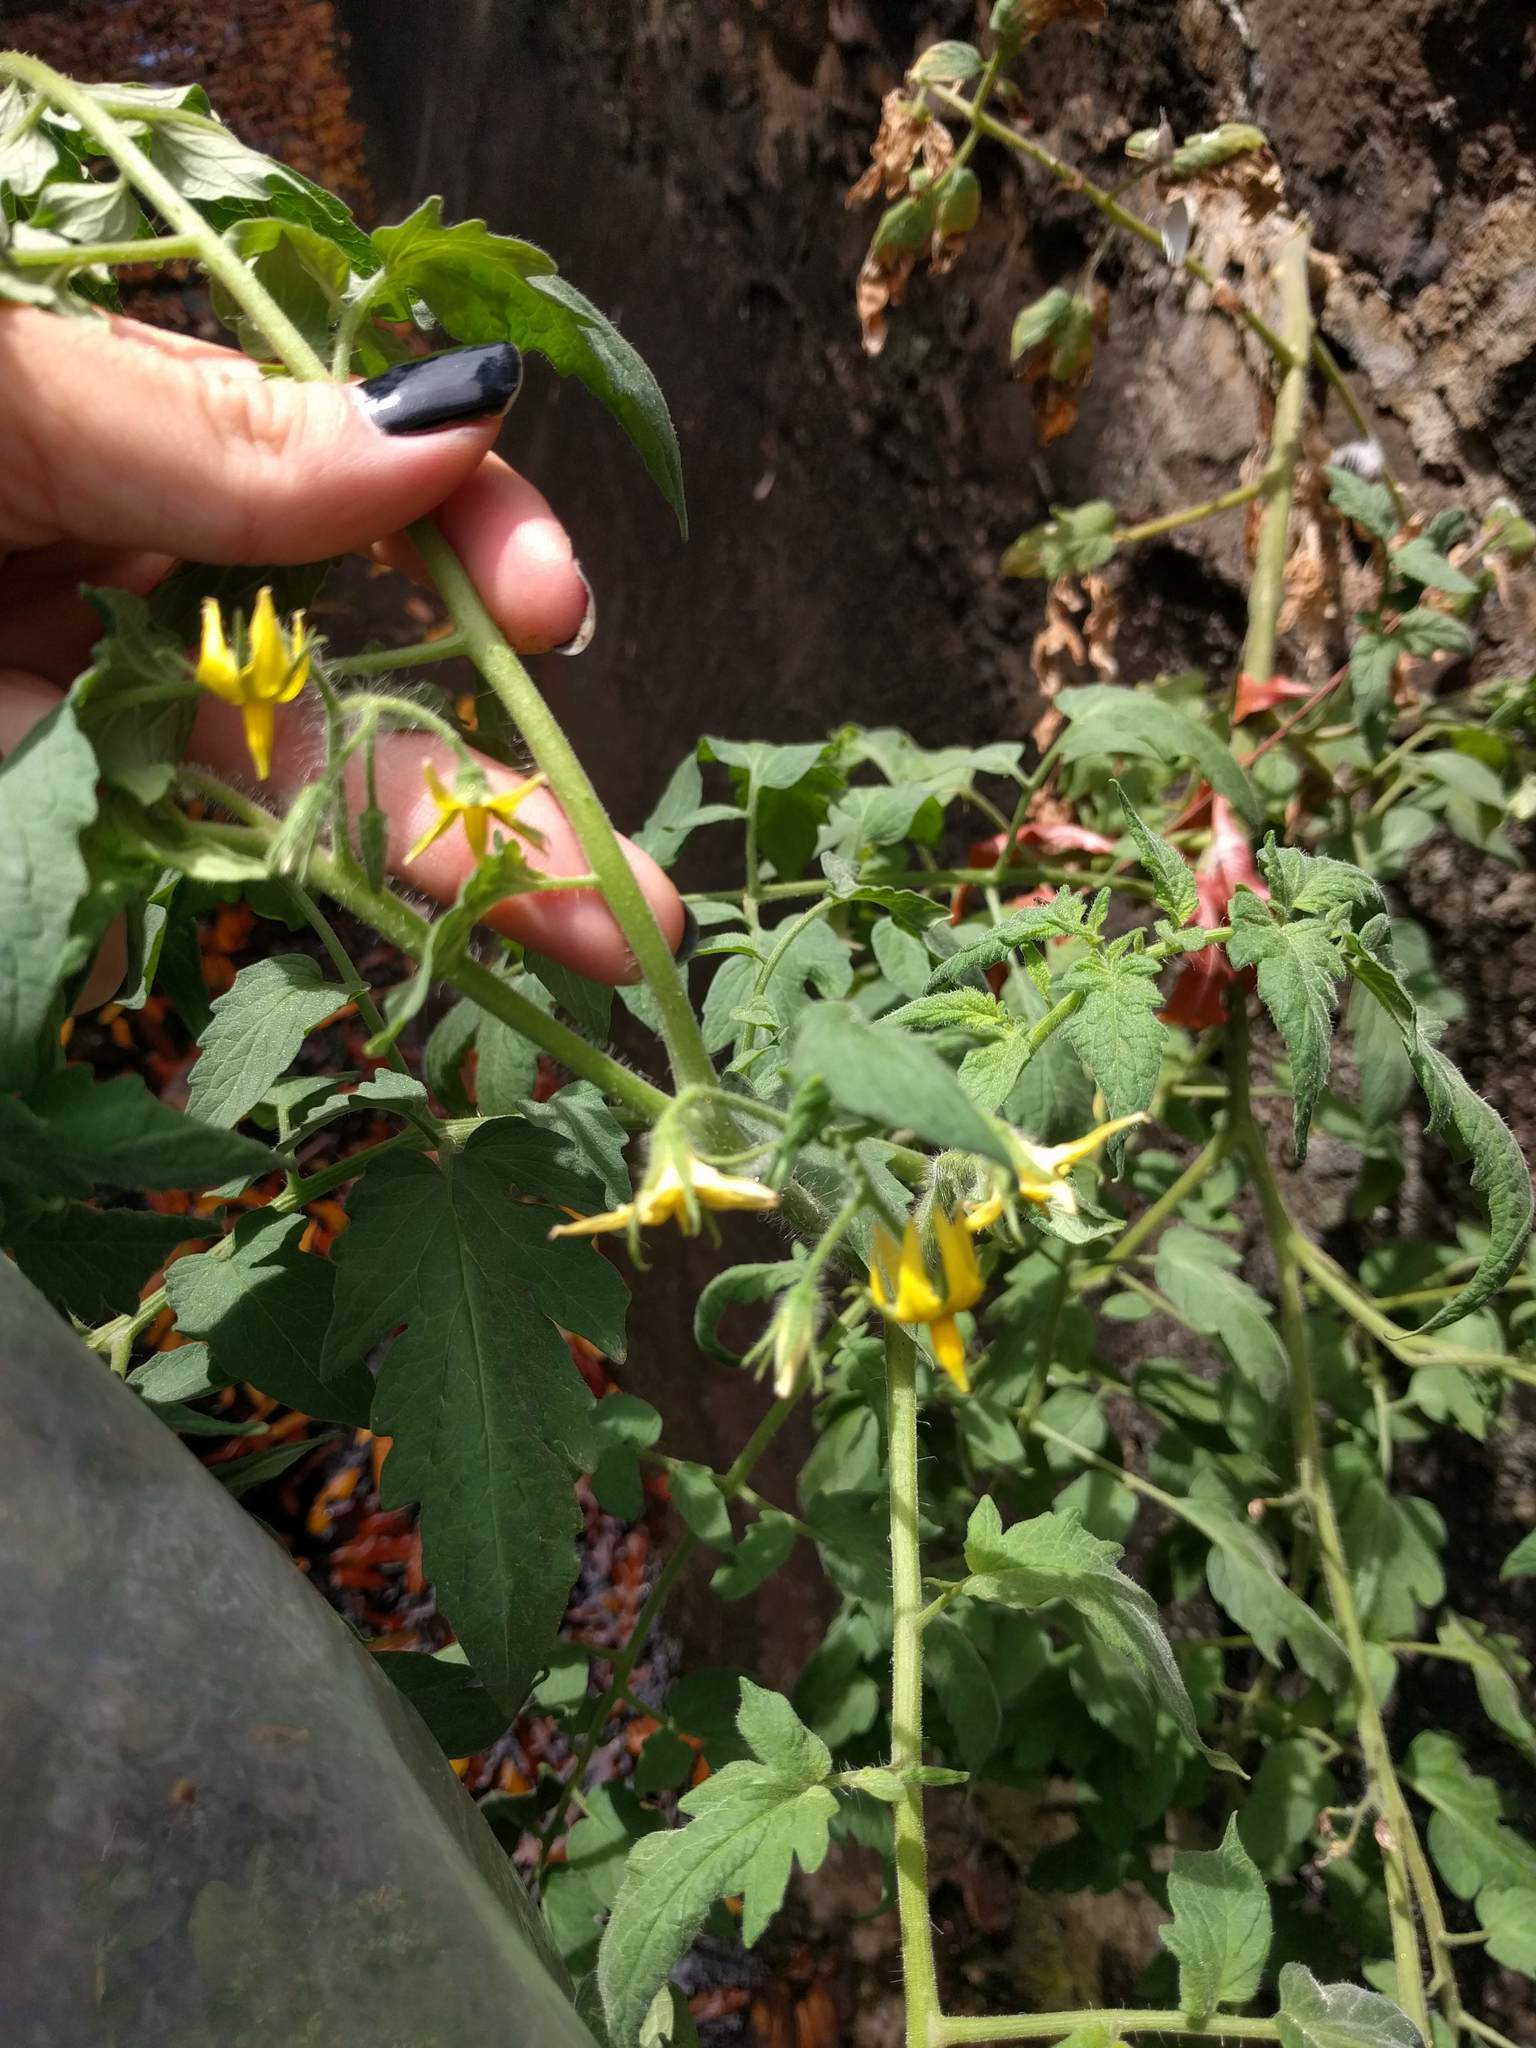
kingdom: Plantae
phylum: Tracheophyta
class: Magnoliopsida
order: Solanales
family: Solanaceae
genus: Solanum
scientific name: Solanum lycopersicum
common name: Garden tomato
